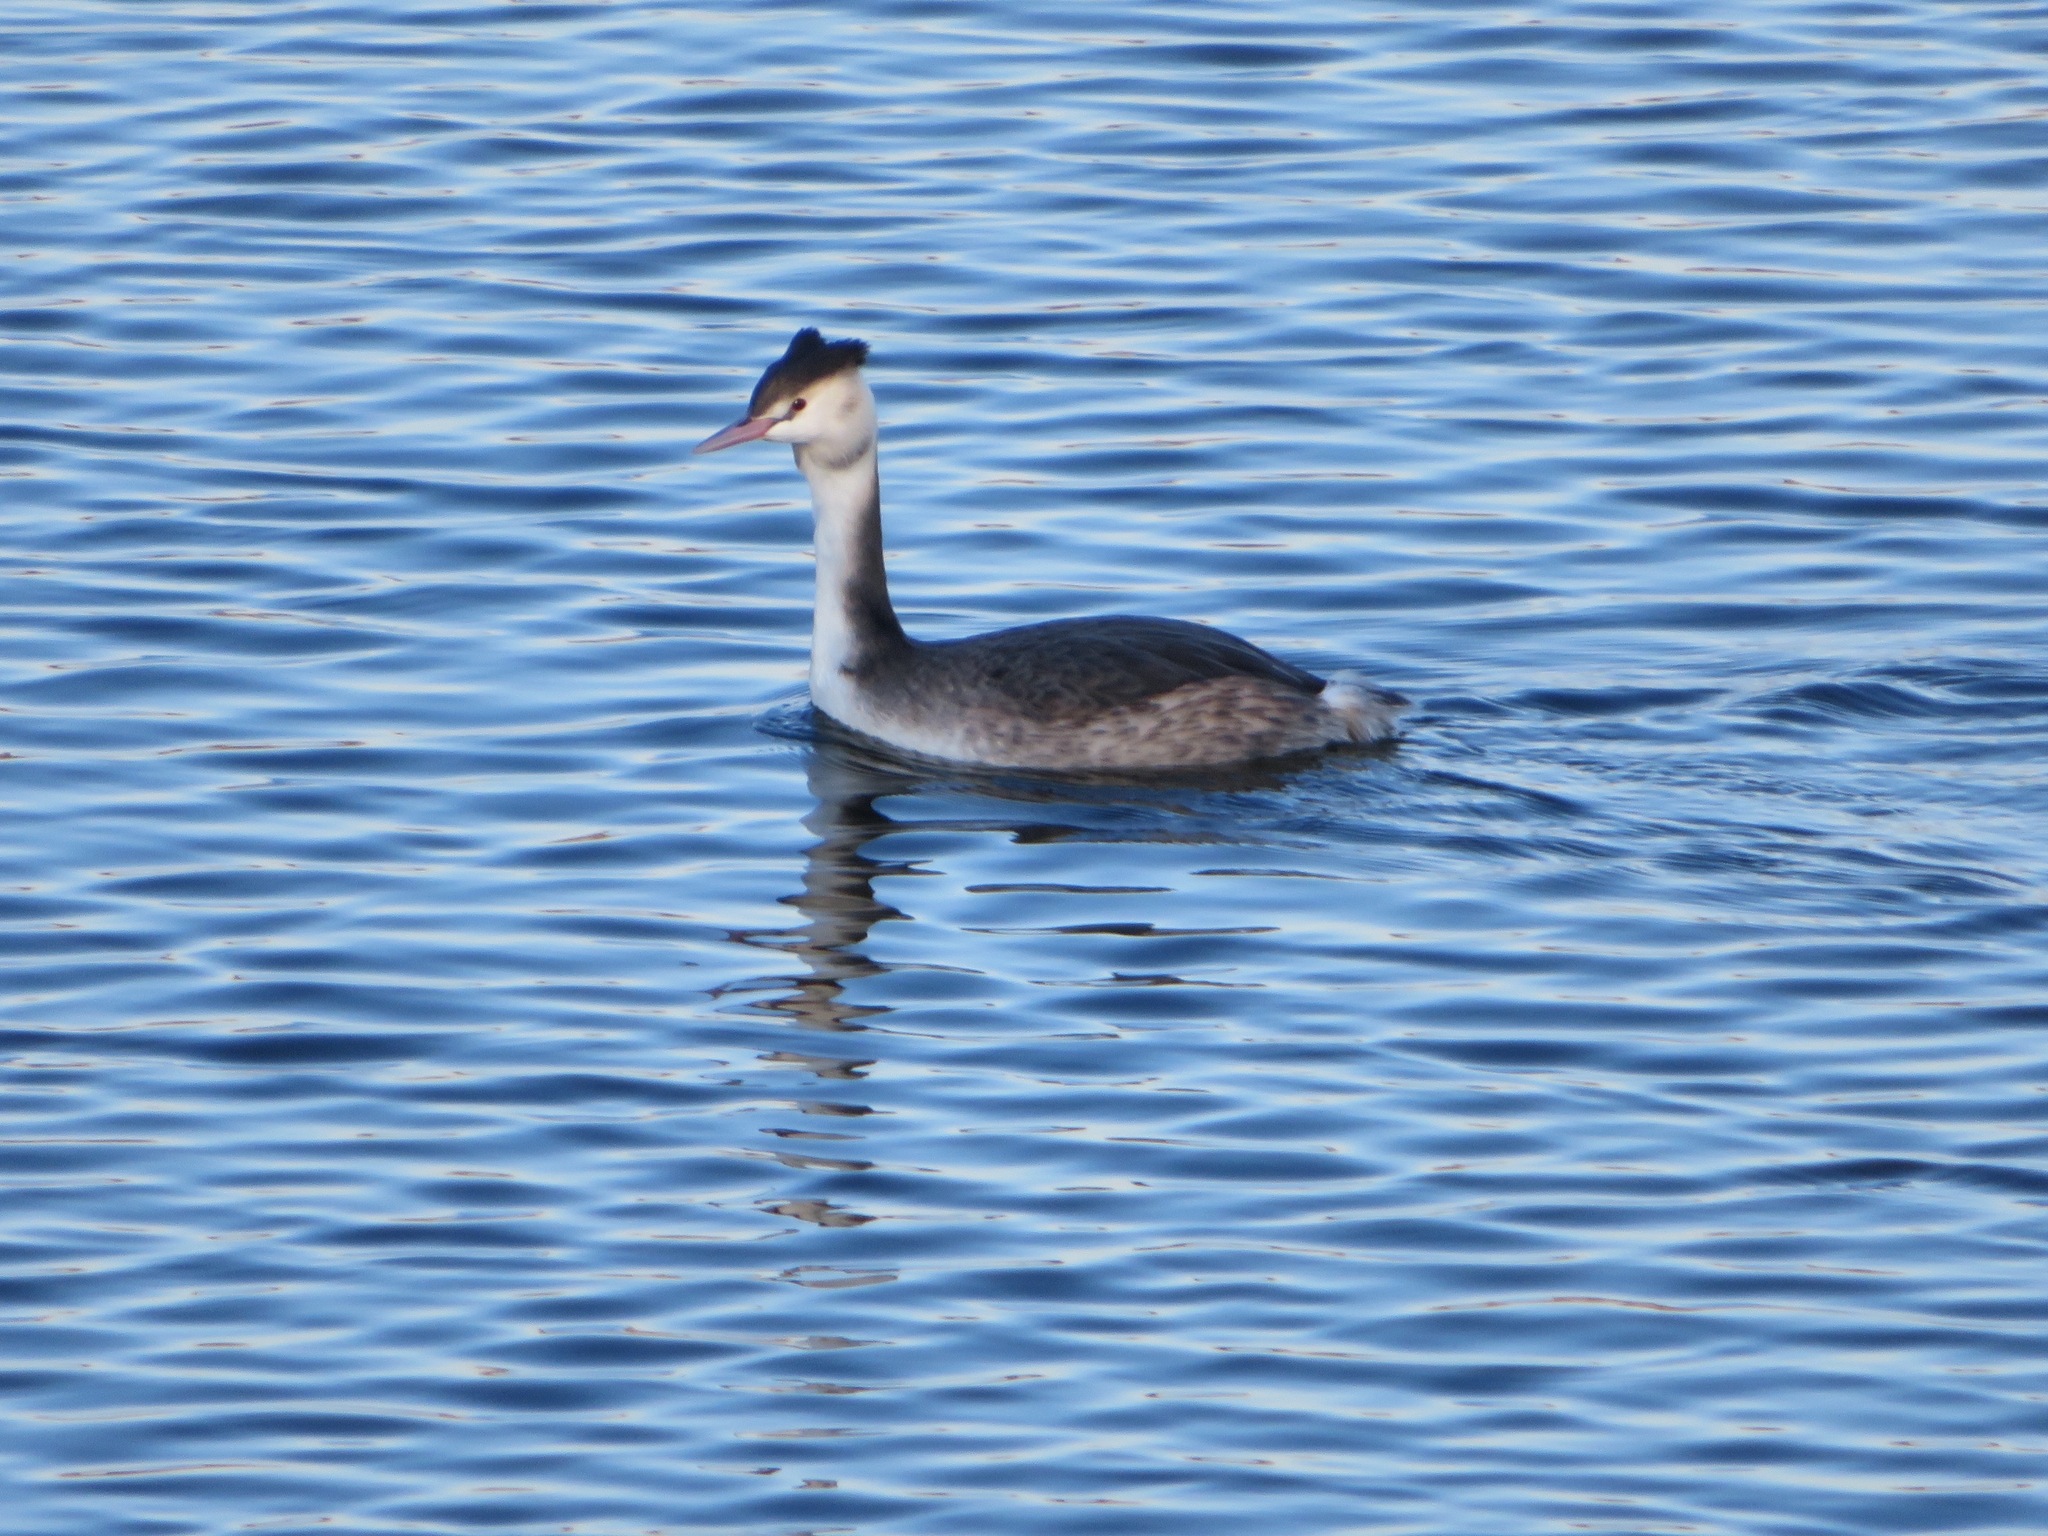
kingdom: Animalia
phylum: Chordata
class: Aves
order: Podicipediformes
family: Podicipedidae
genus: Podiceps
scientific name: Podiceps cristatus
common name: Great crested grebe
